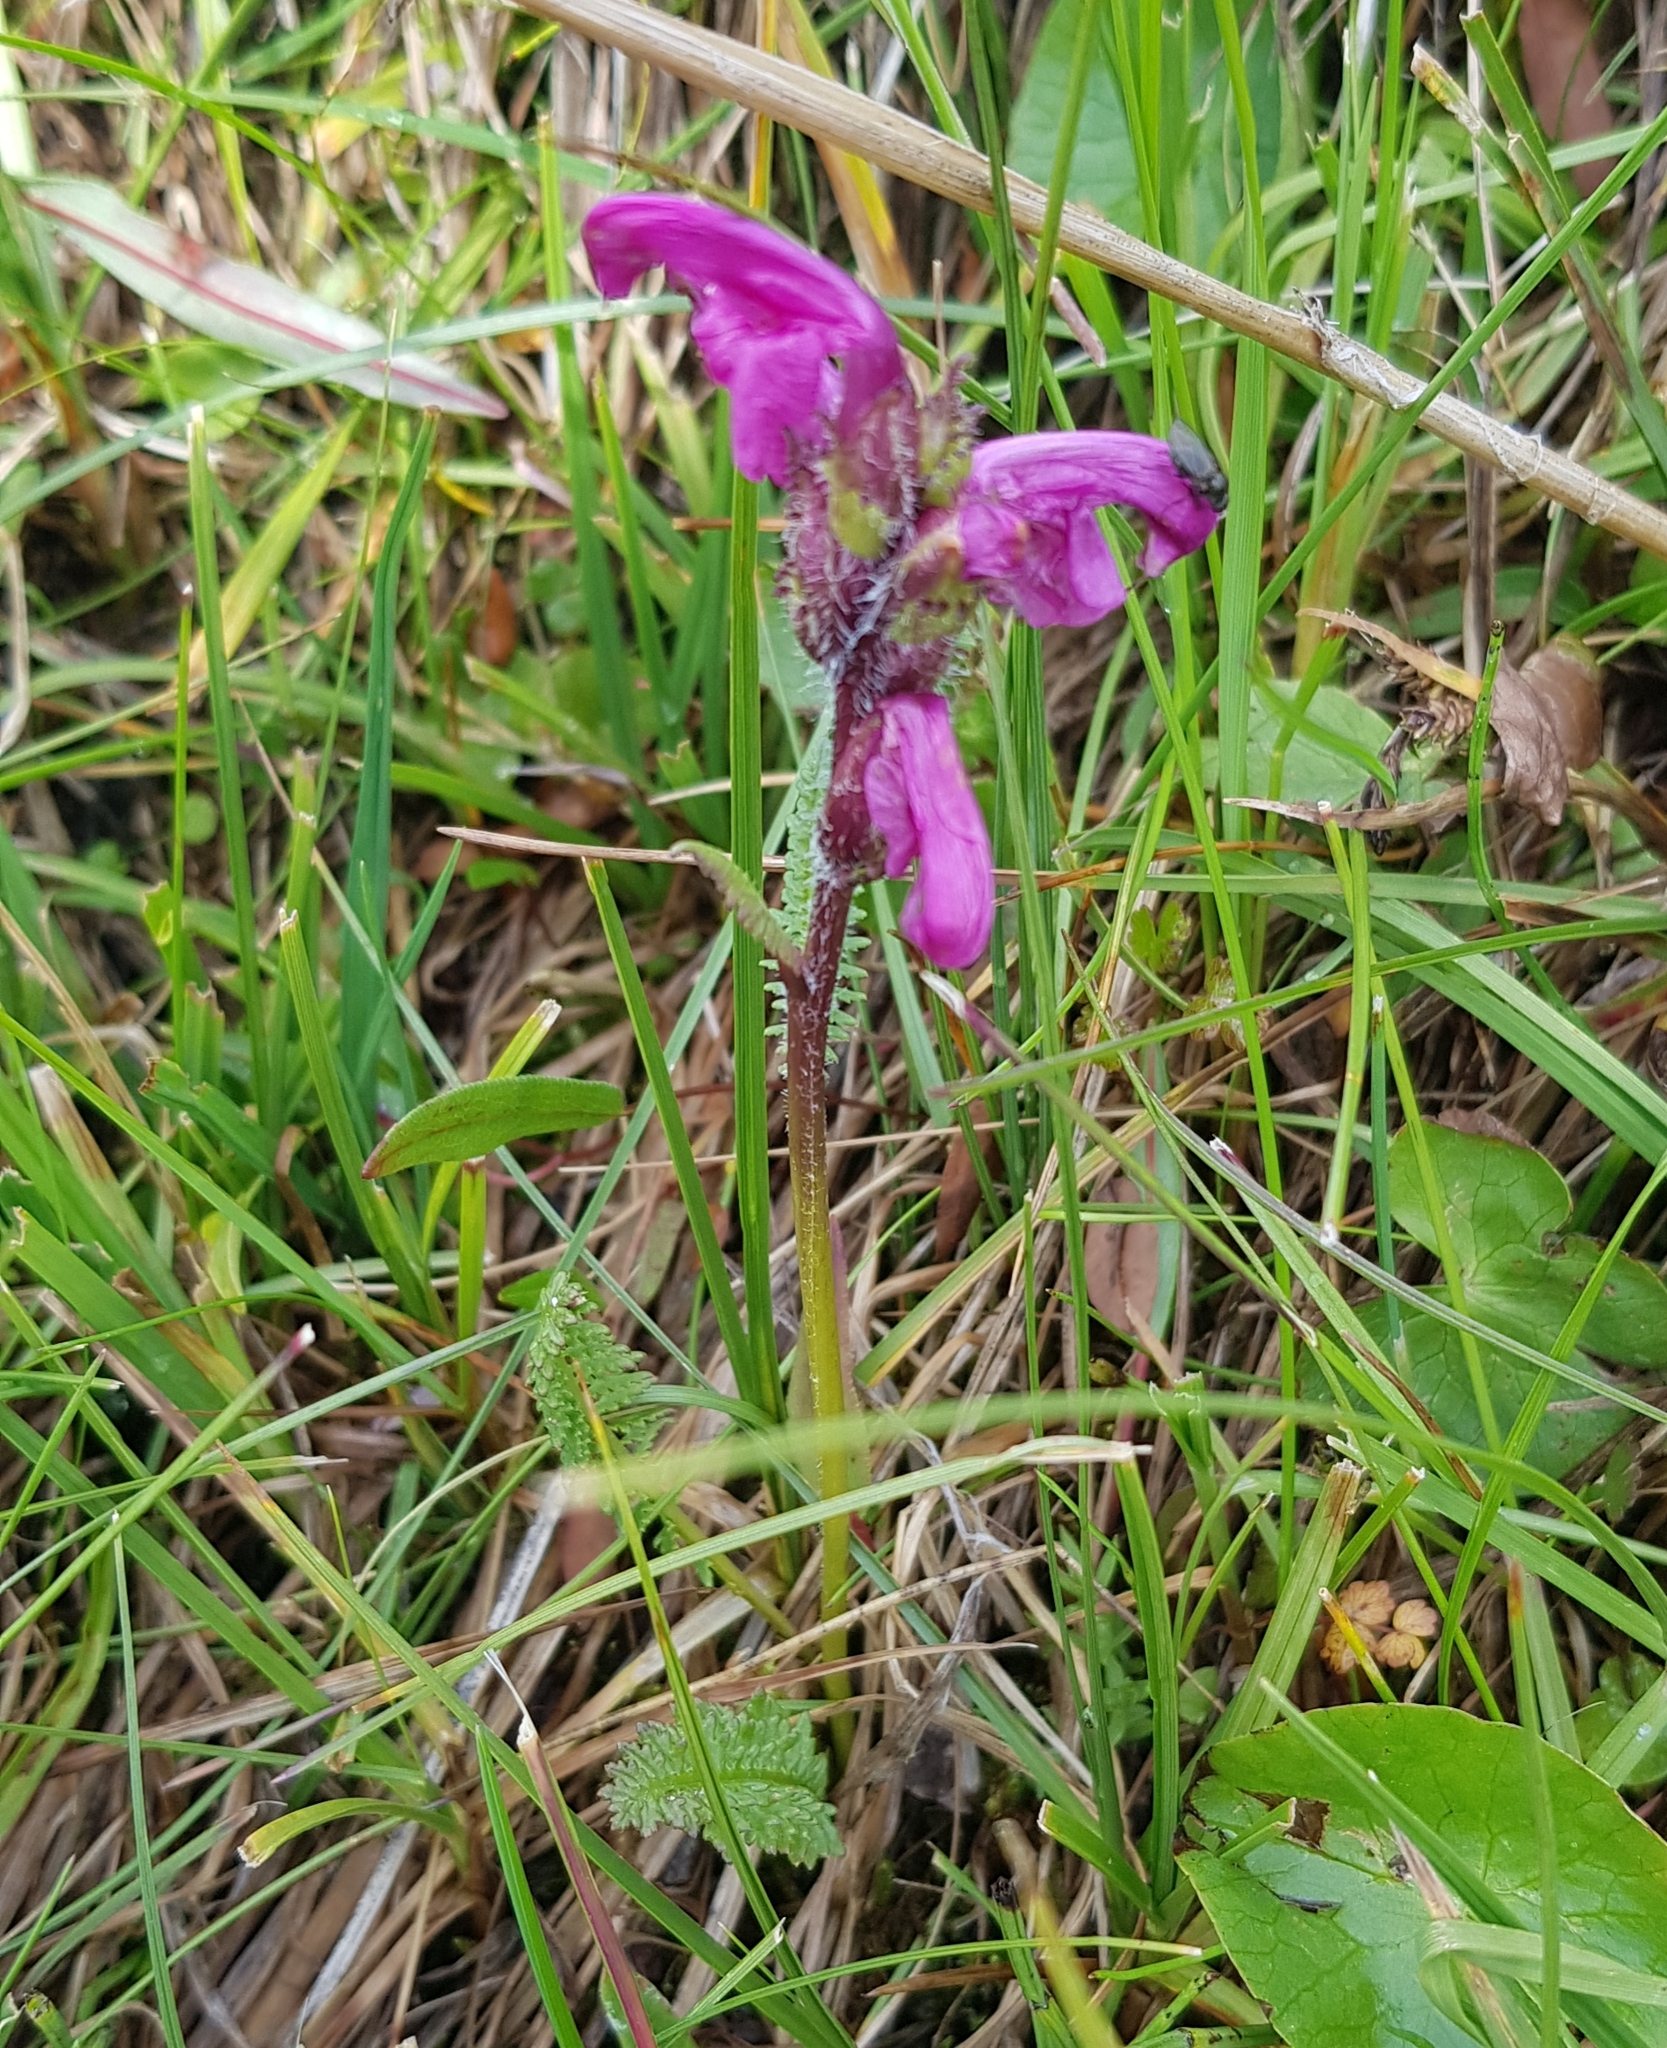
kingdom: Plantae
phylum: Tracheophyta
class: Magnoliopsida
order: Lamiales
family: Orobanchaceae
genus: Pedicularis
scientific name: Pedicularis uliginosa
